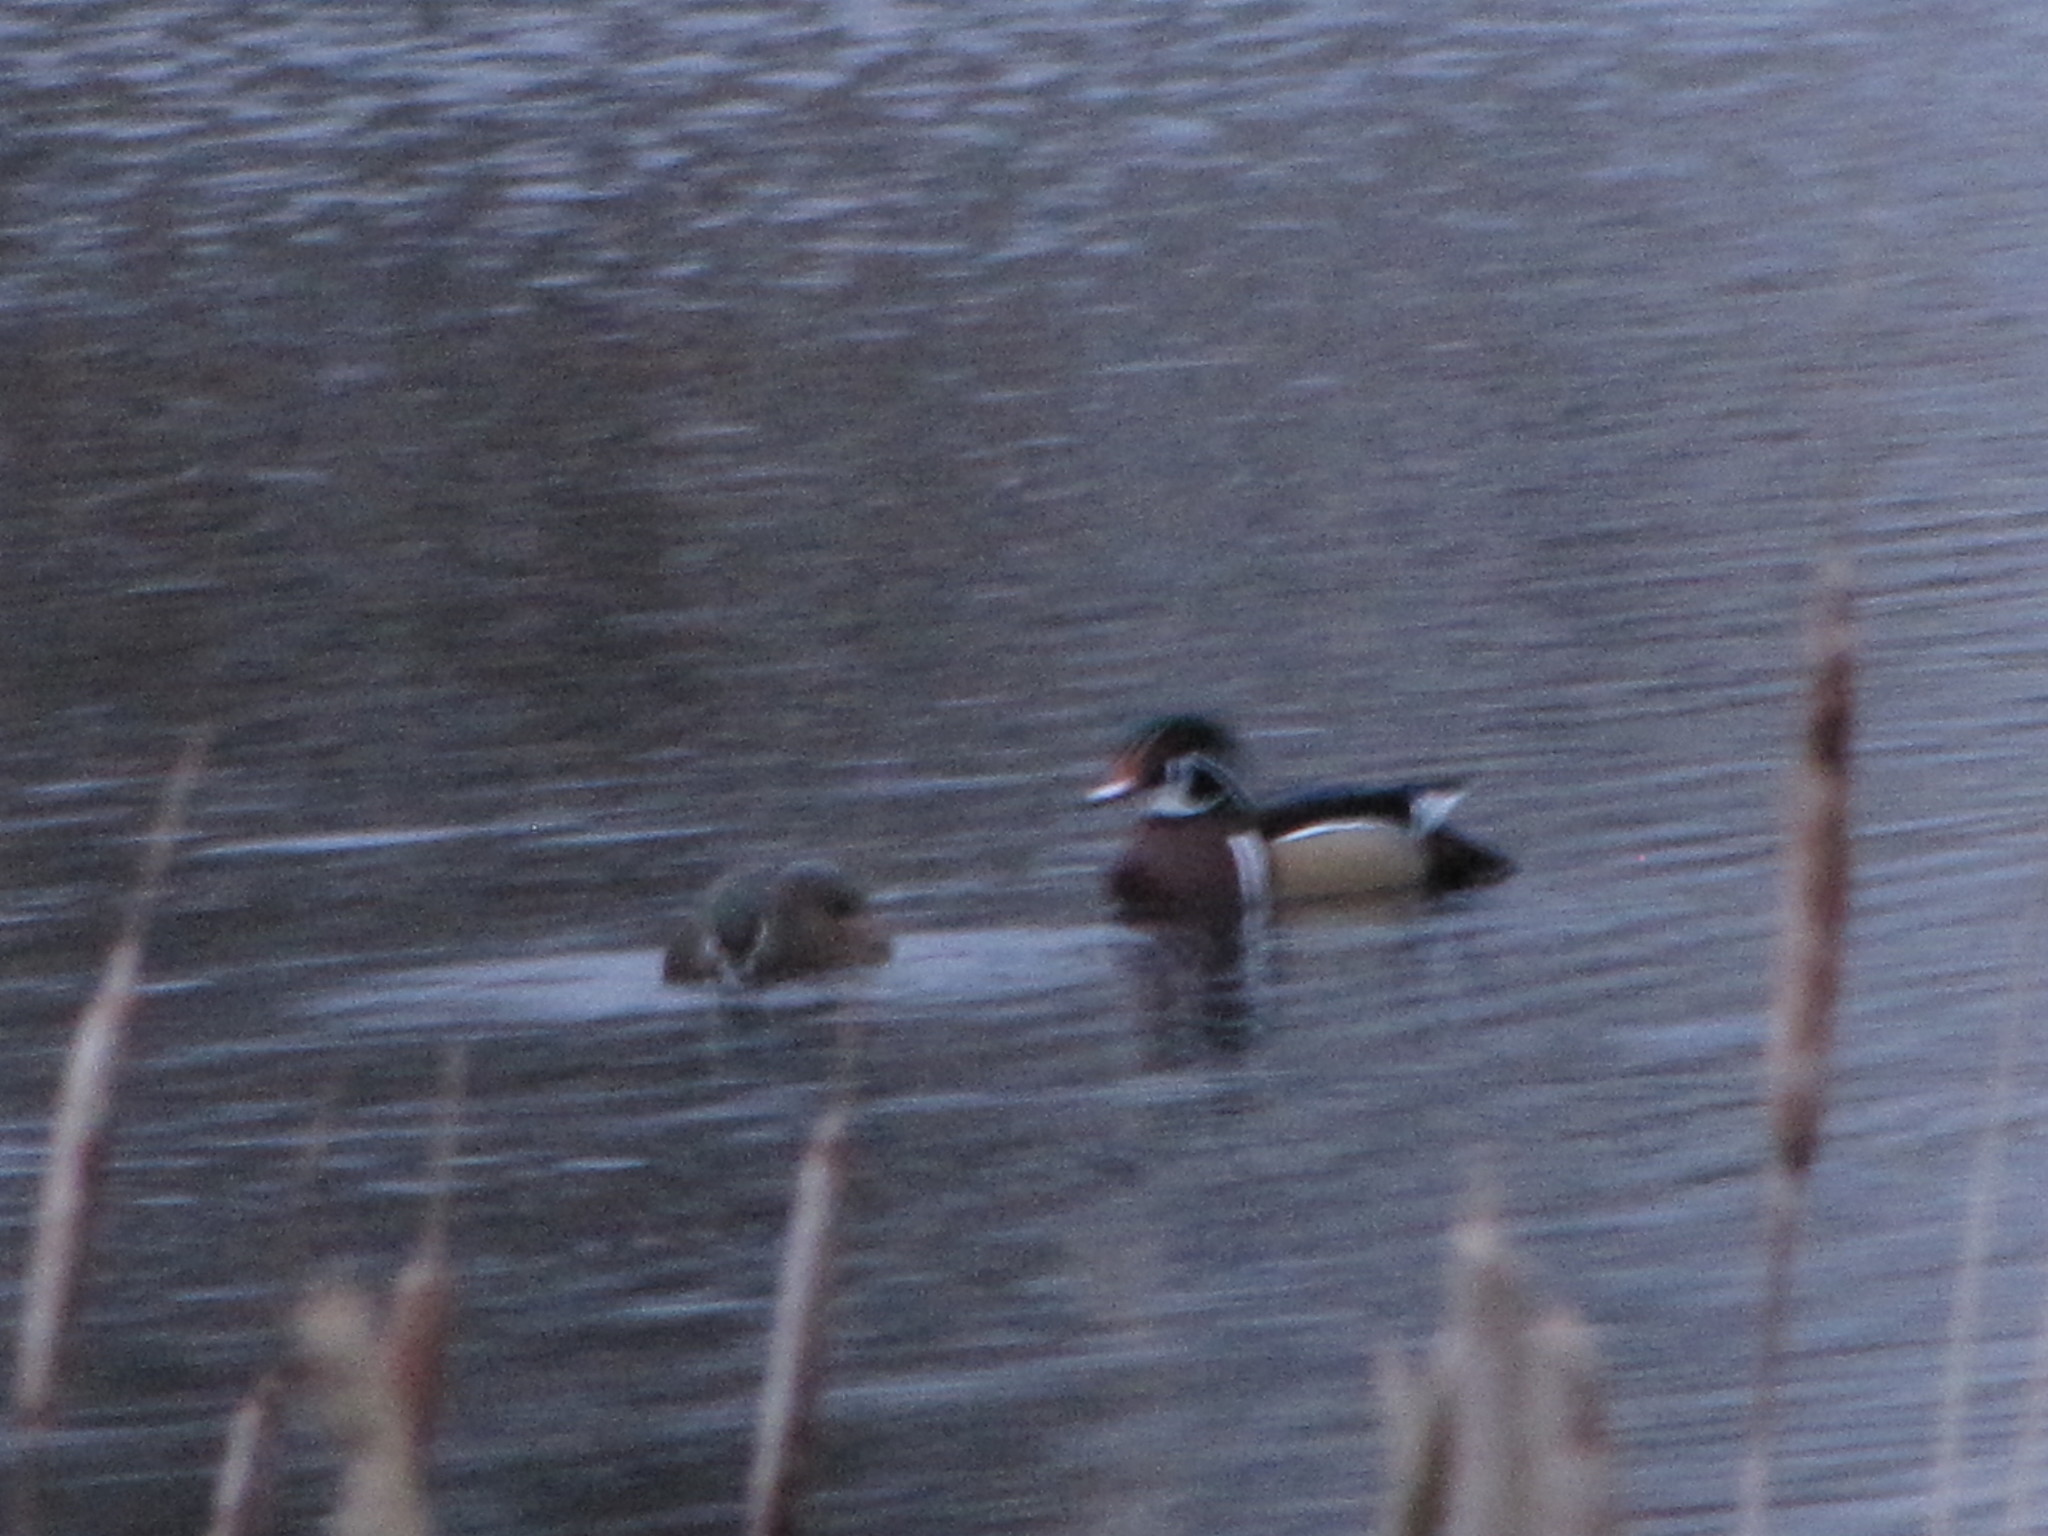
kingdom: Animalia
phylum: Chordata
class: Aves
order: Anseriformes
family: Anatidae
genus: Aix
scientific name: Aix sponsa
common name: Wood duck
